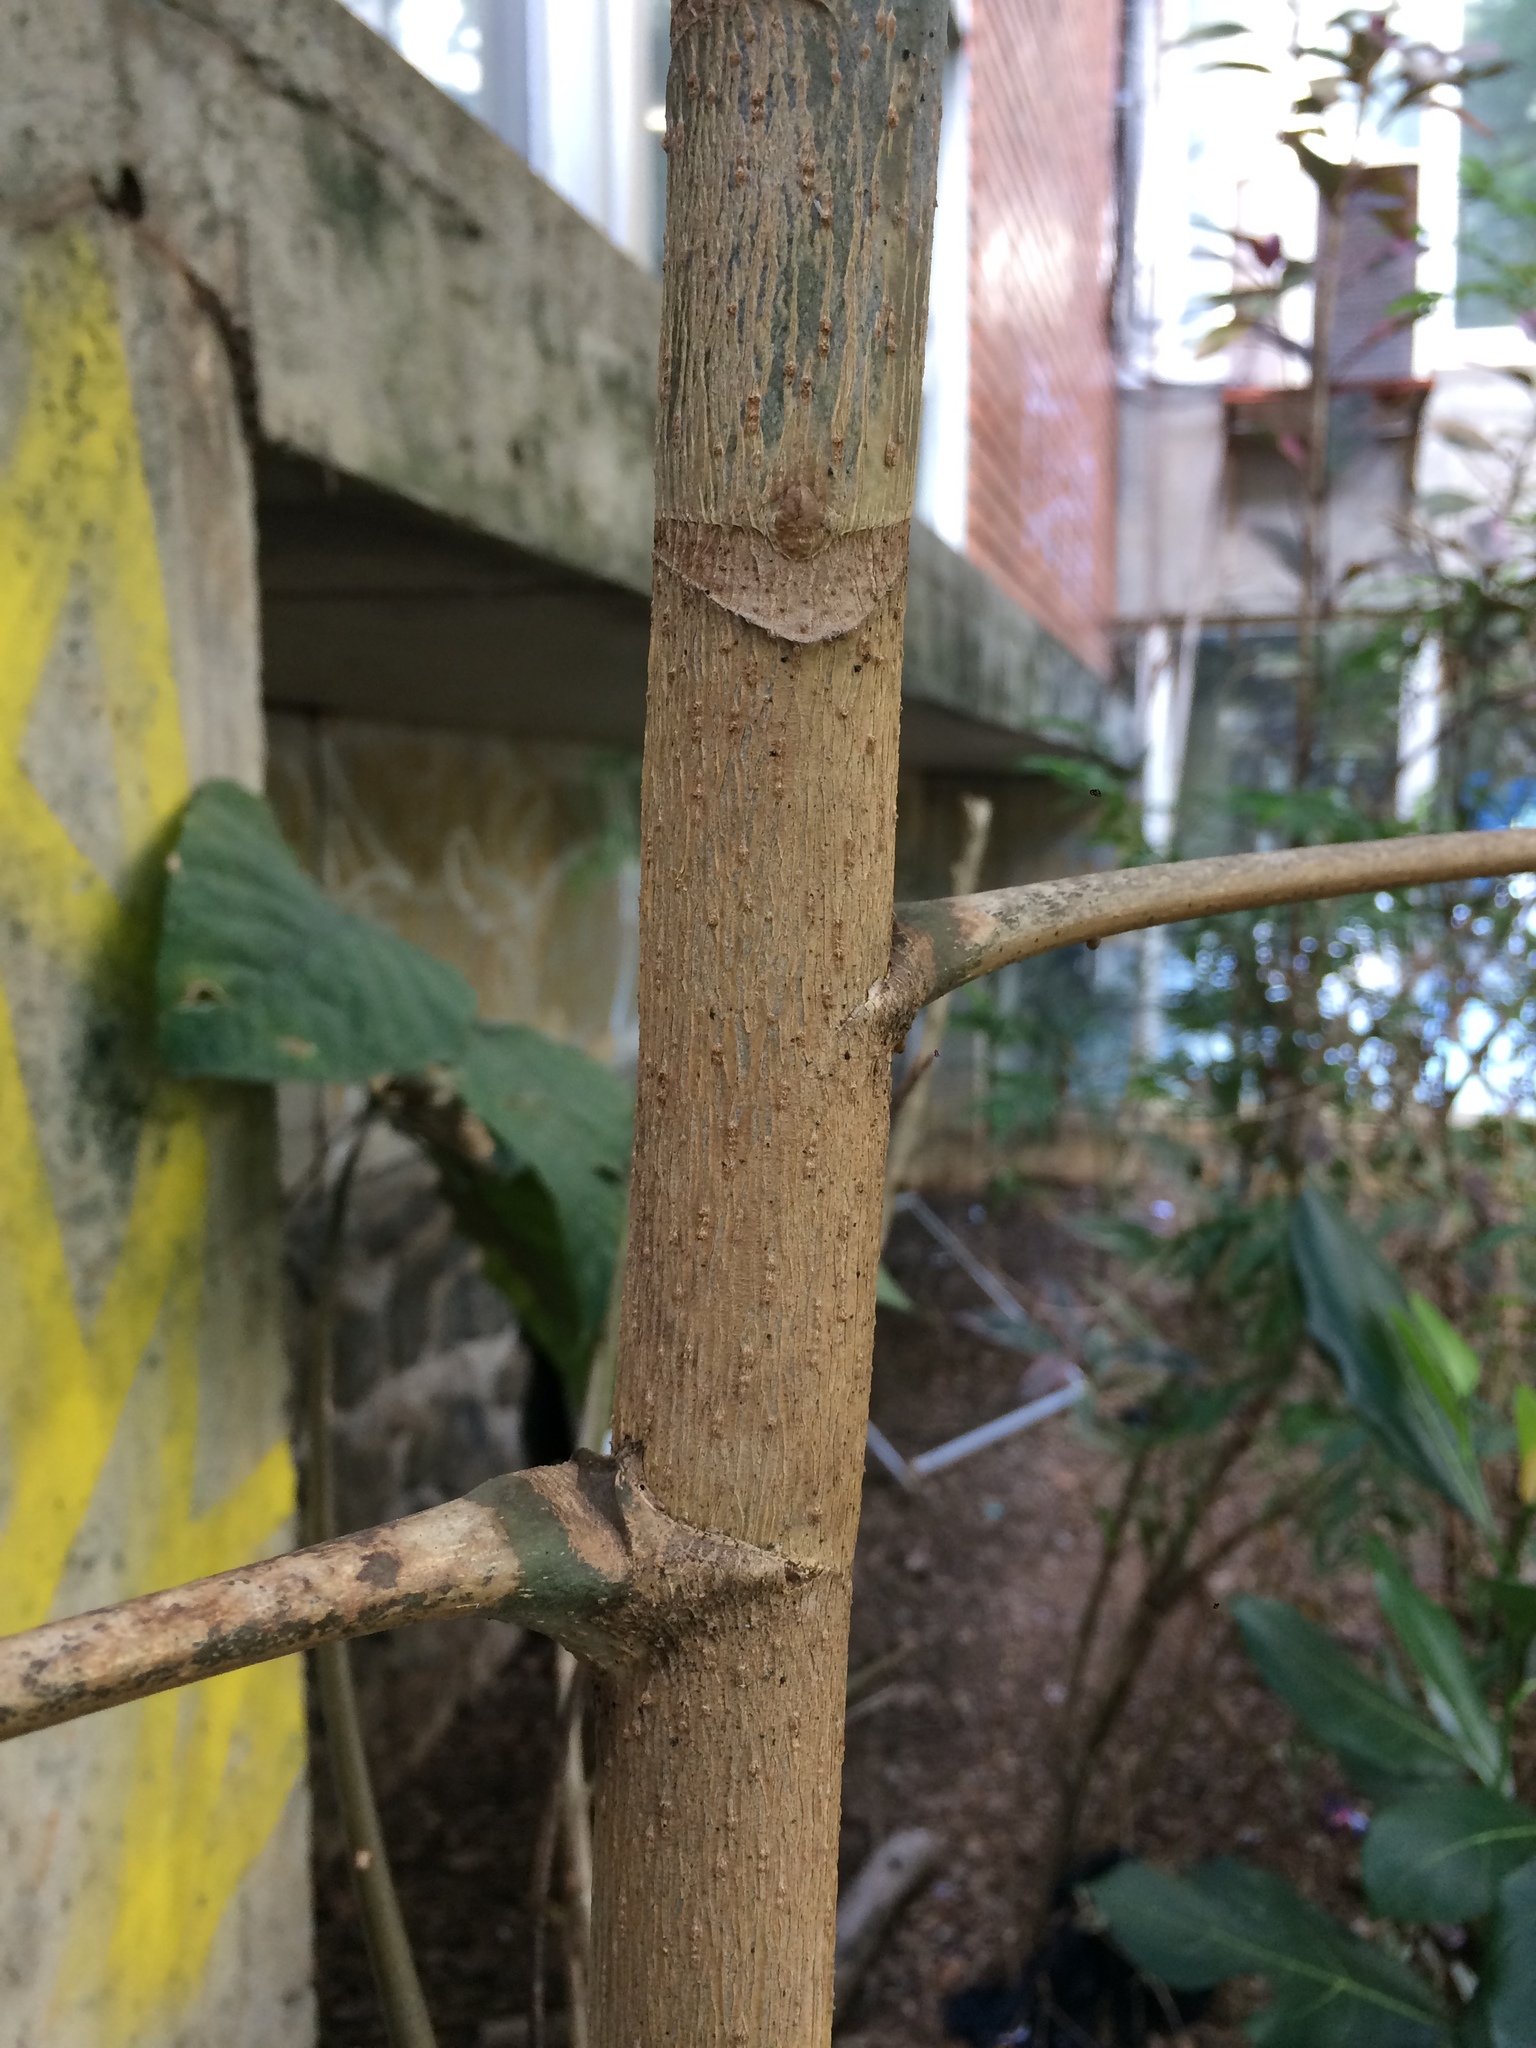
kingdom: Plantae
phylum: Tracheophyta
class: Magnoliopsida
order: Apiales
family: Araliaceae
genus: Didymopanax
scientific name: Didymopanax morototoni
